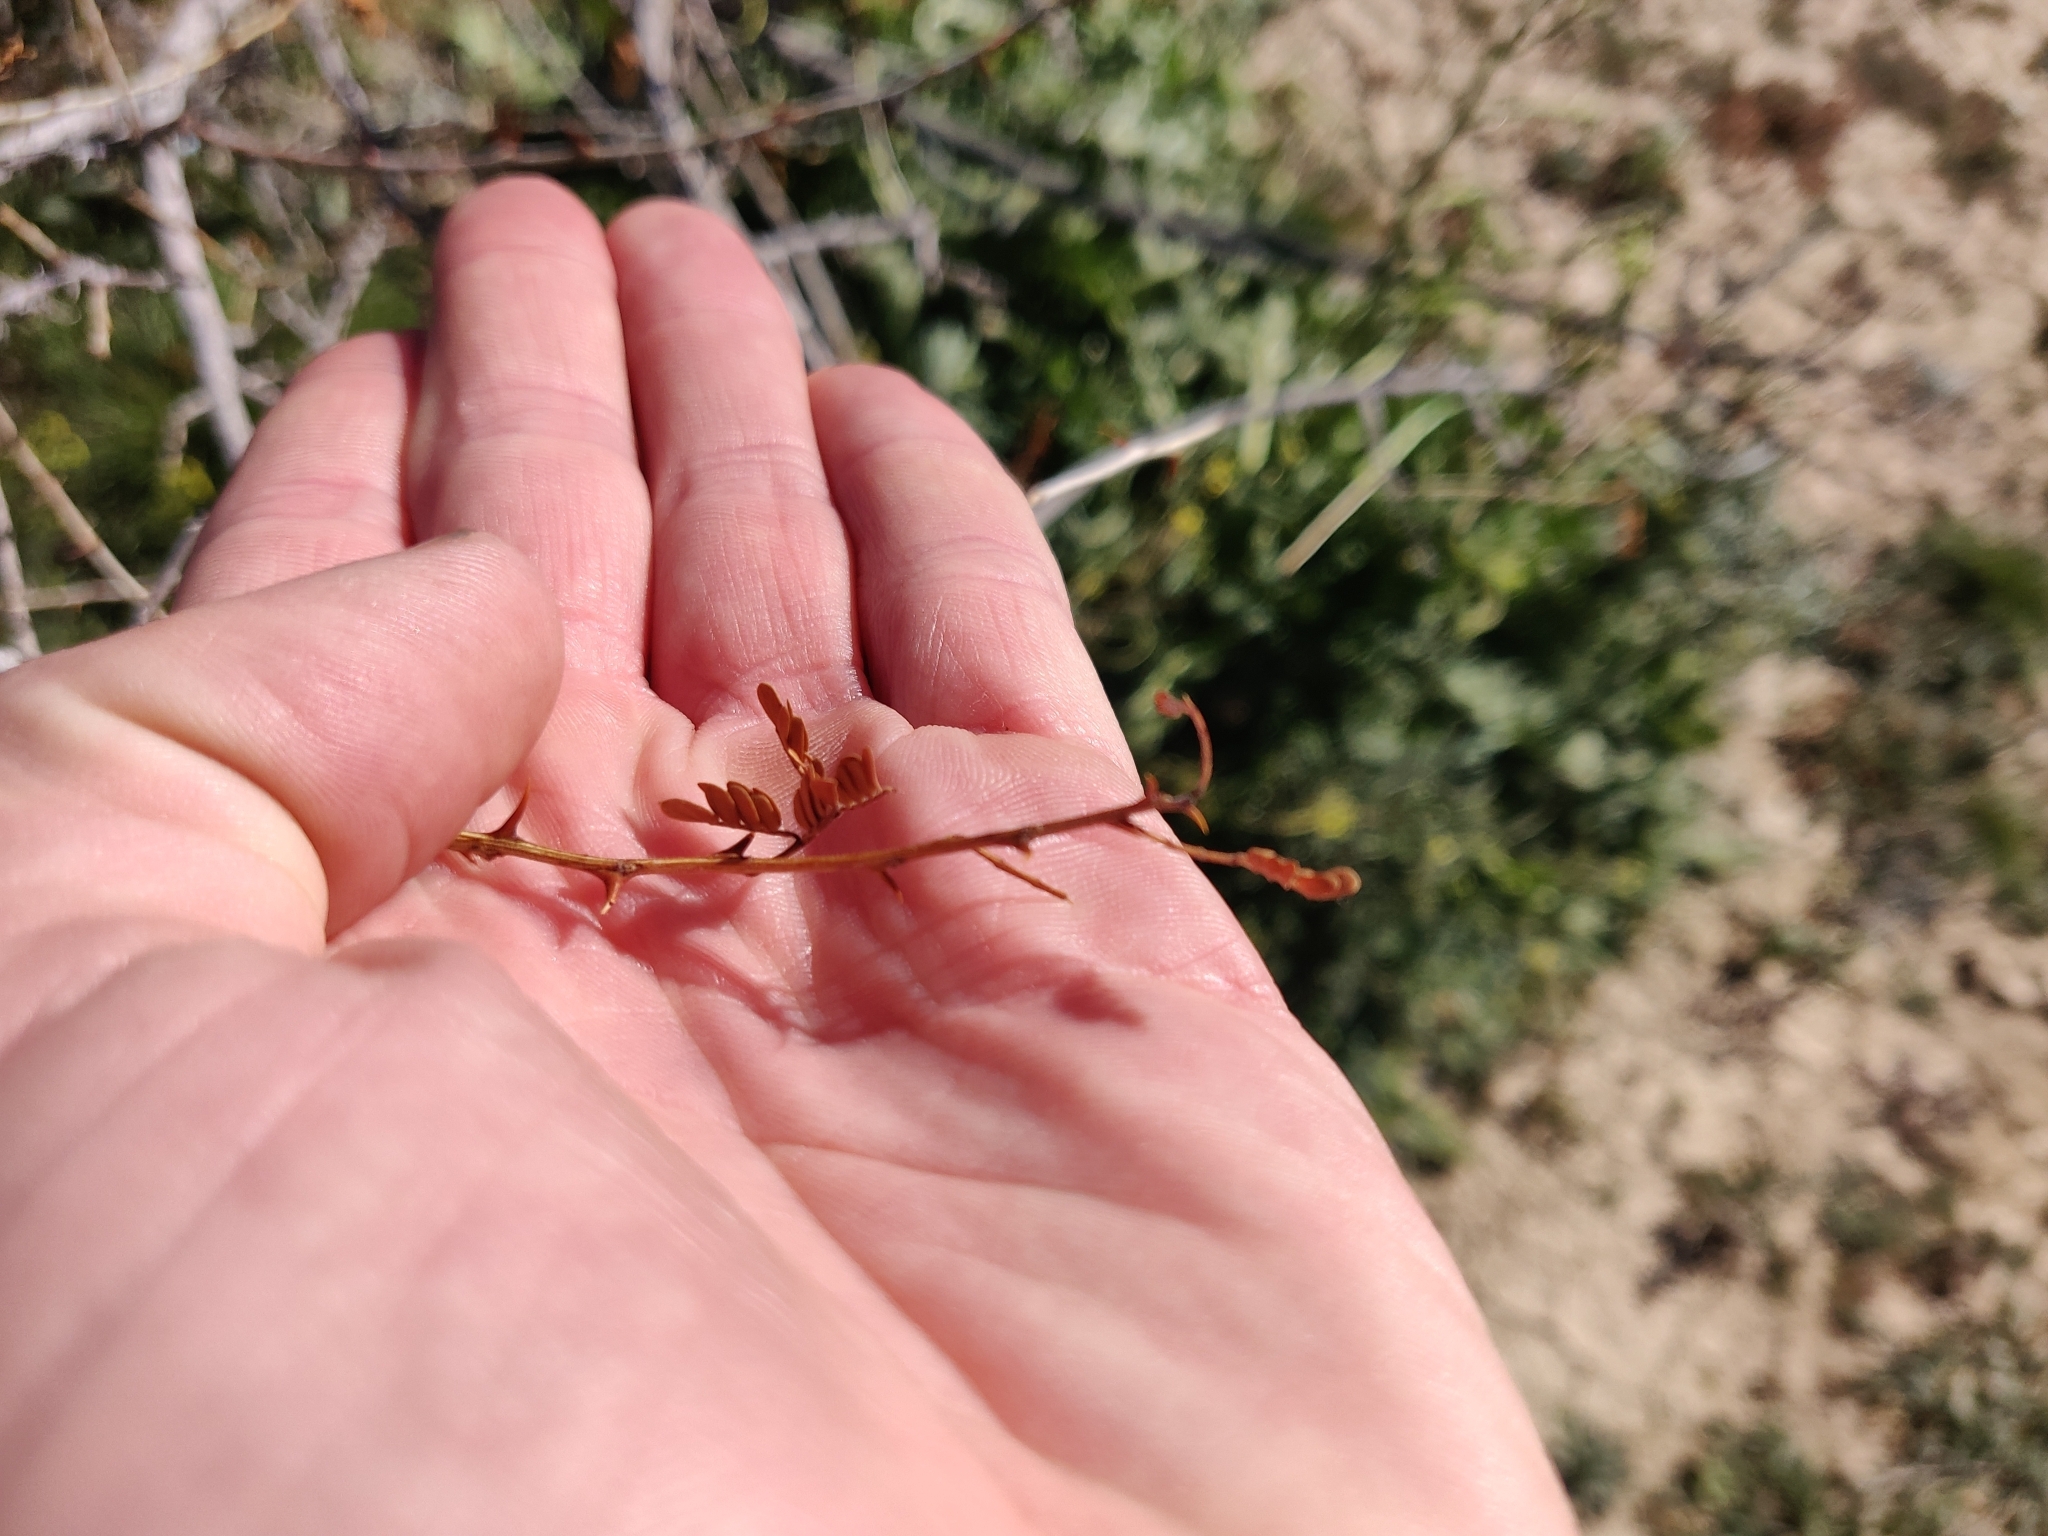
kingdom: Plantae
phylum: Tracheophyta
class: Magnoliopsida
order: Fabales
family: Fabaceae
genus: Senegalia
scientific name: Senegalia greggii
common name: Texas-mimosa
